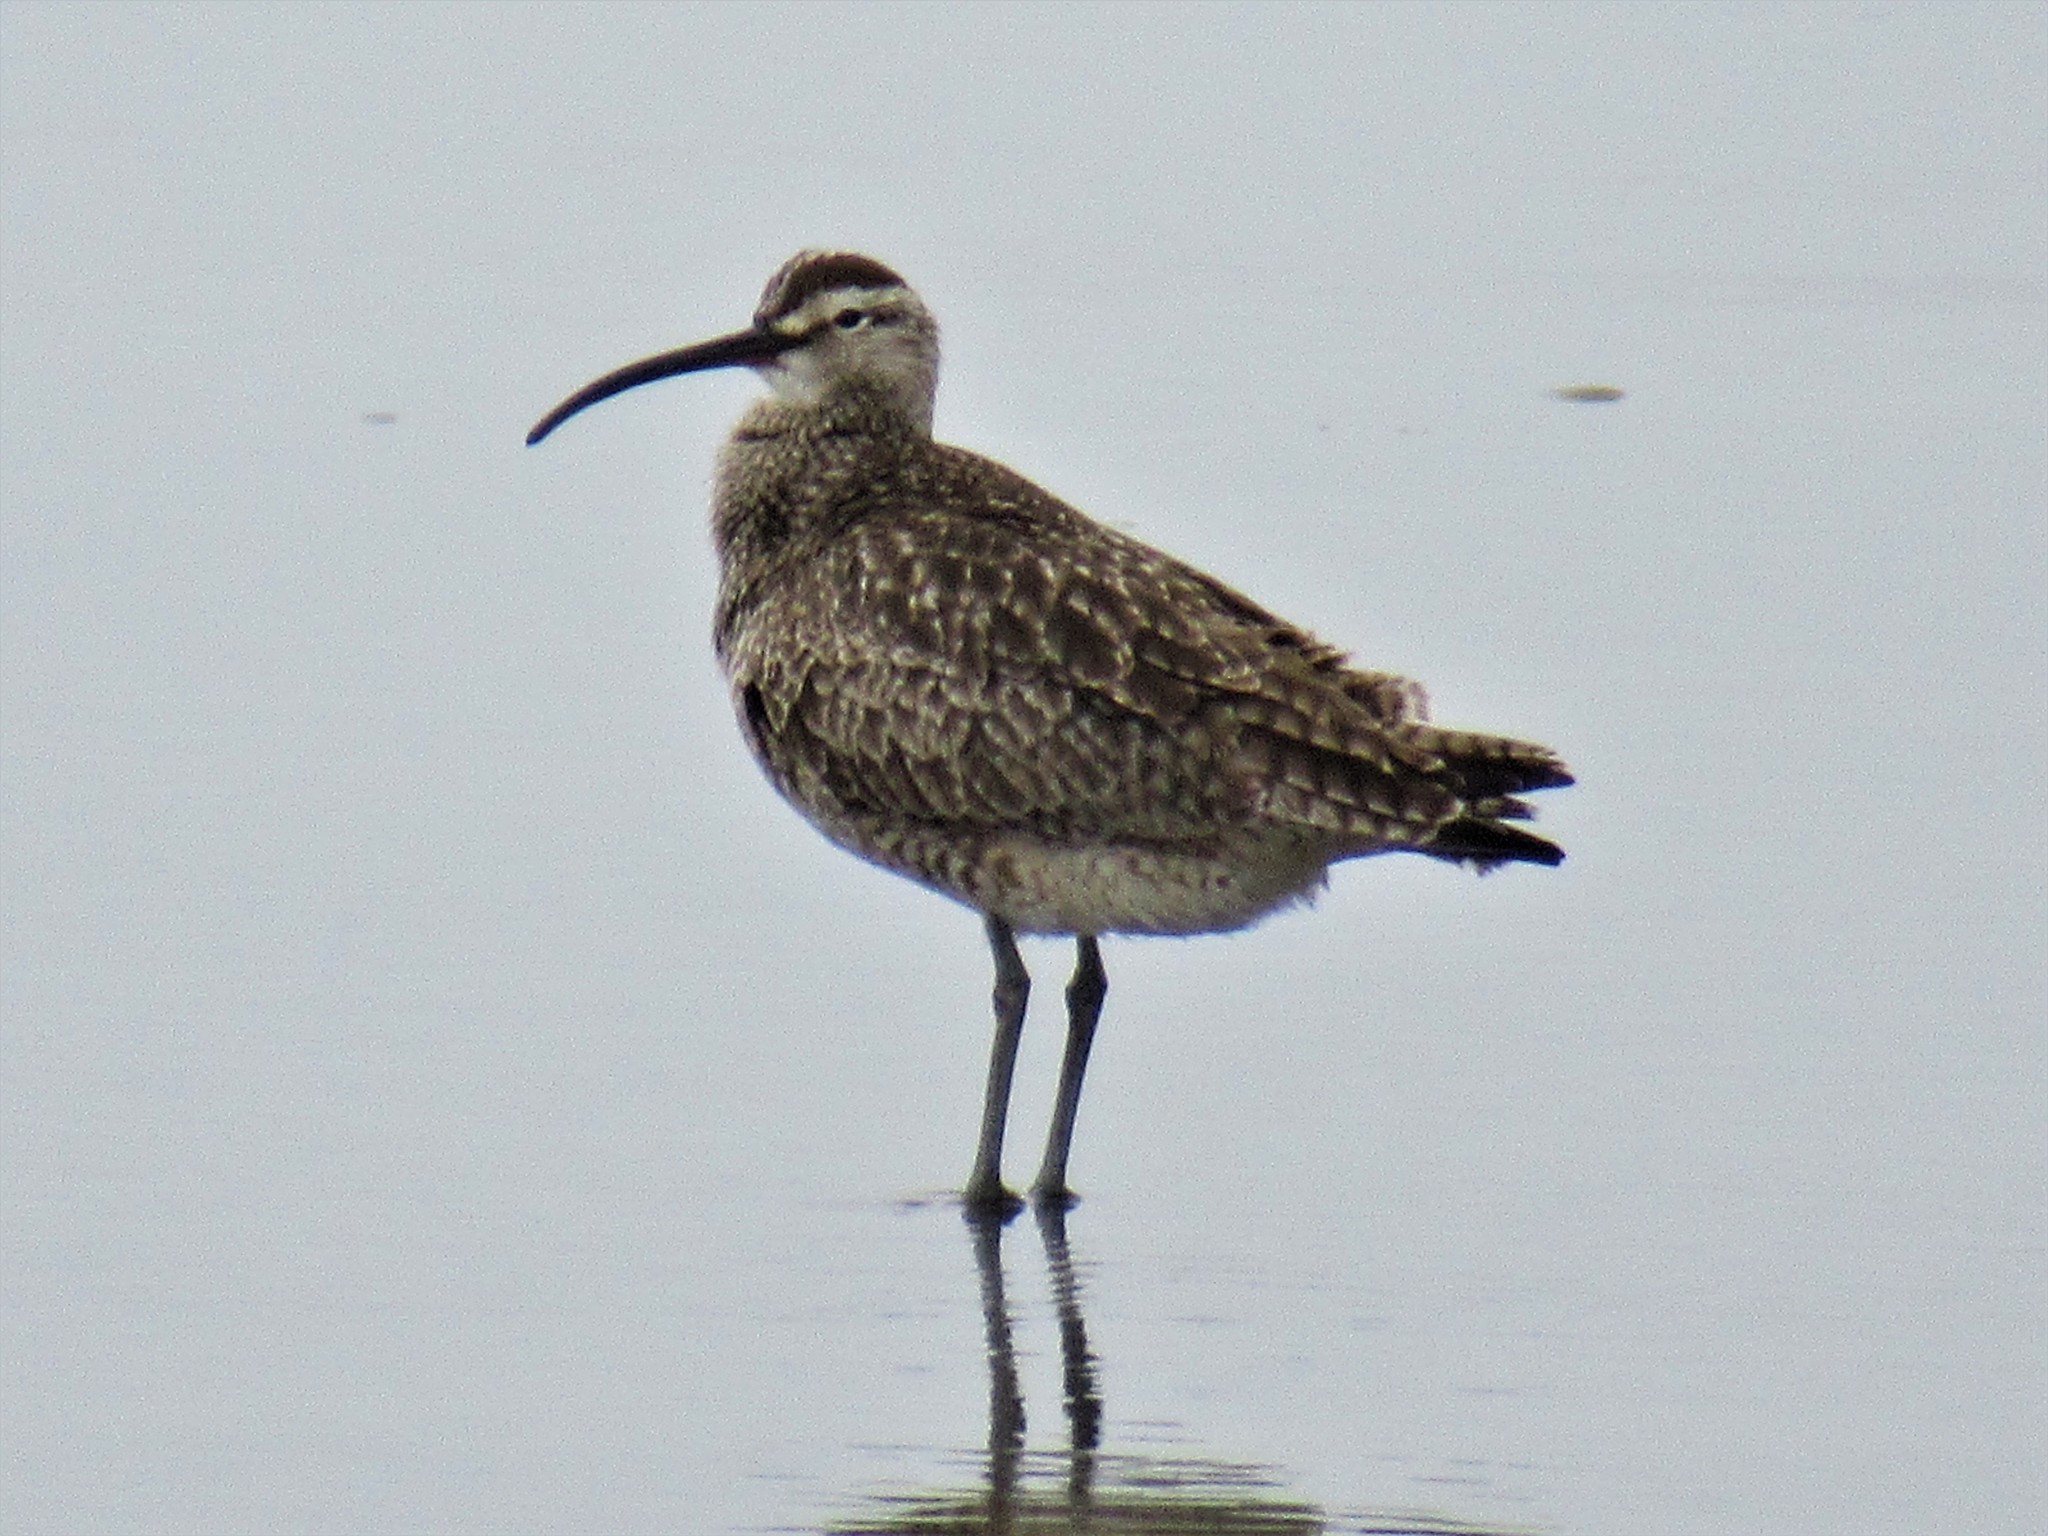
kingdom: Animalia
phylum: Chordata
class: Aves
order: Charadriiformes
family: Scolopacidae
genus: Numenius
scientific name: Numenius phaeopus
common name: Whimbrel
